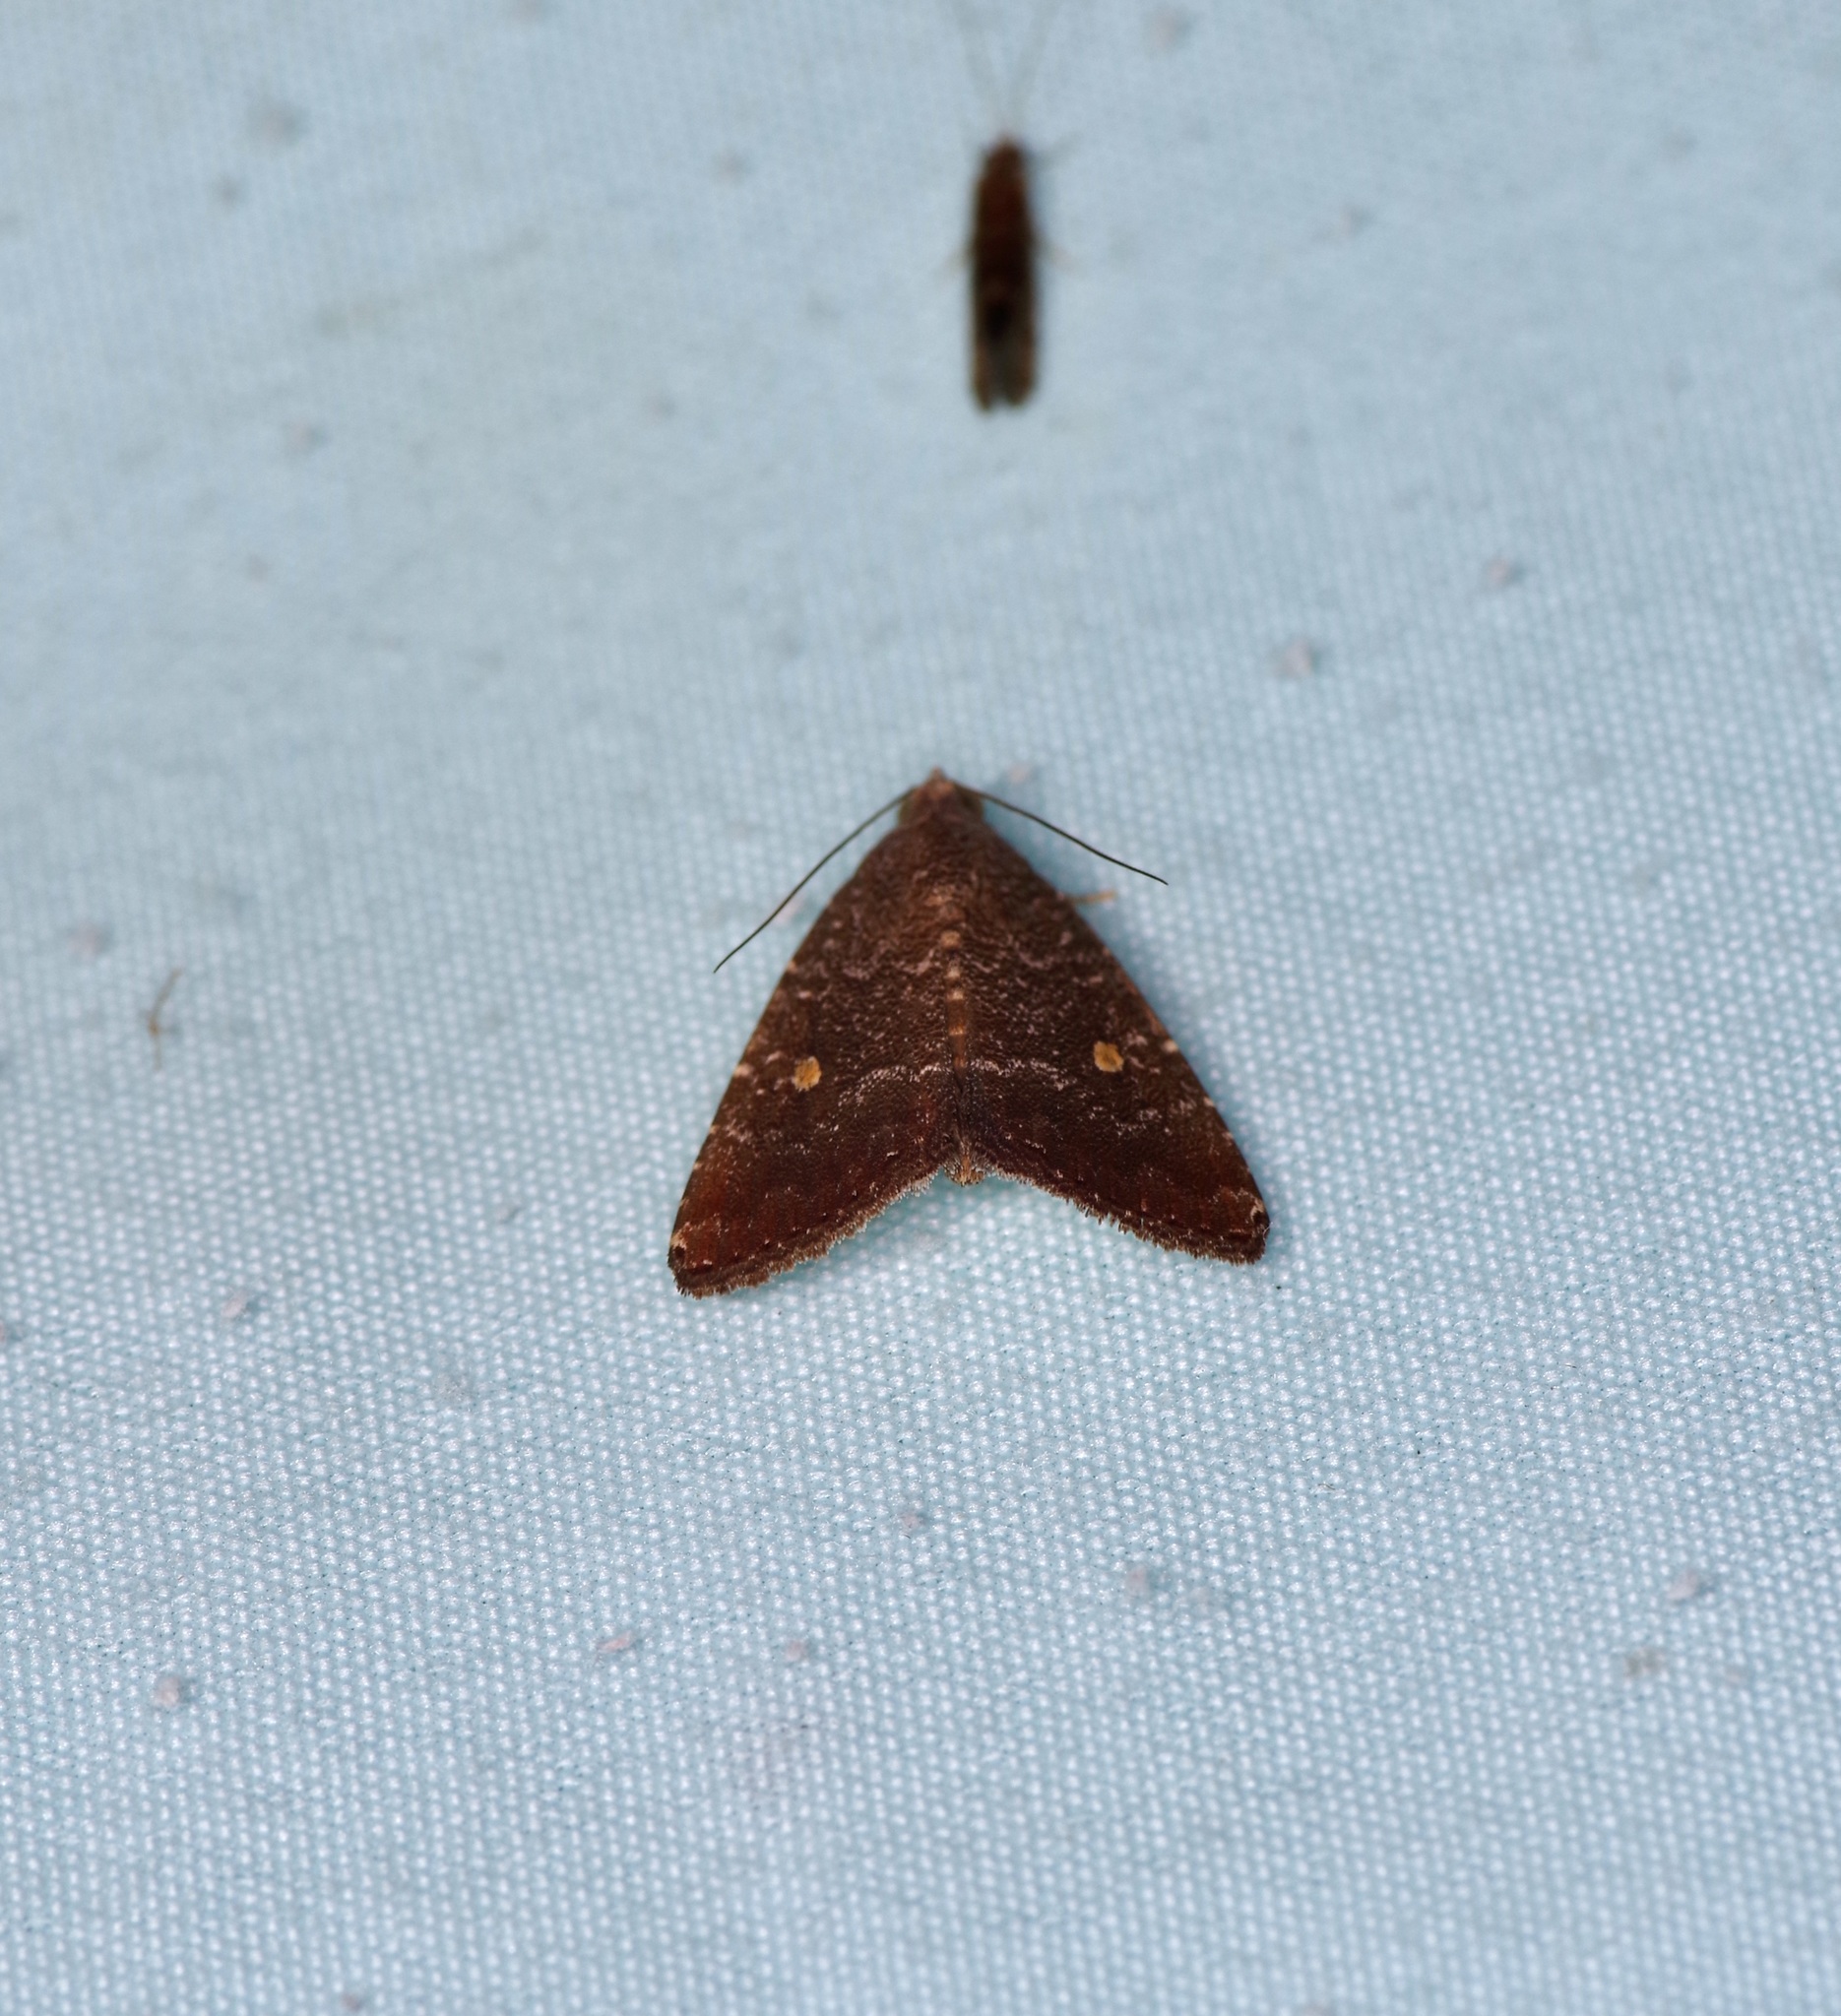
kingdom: Animalia
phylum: Arthropoda
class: Insecta
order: Lepidoptera
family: Noctuidae
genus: Amyna
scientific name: Amyna stricta
